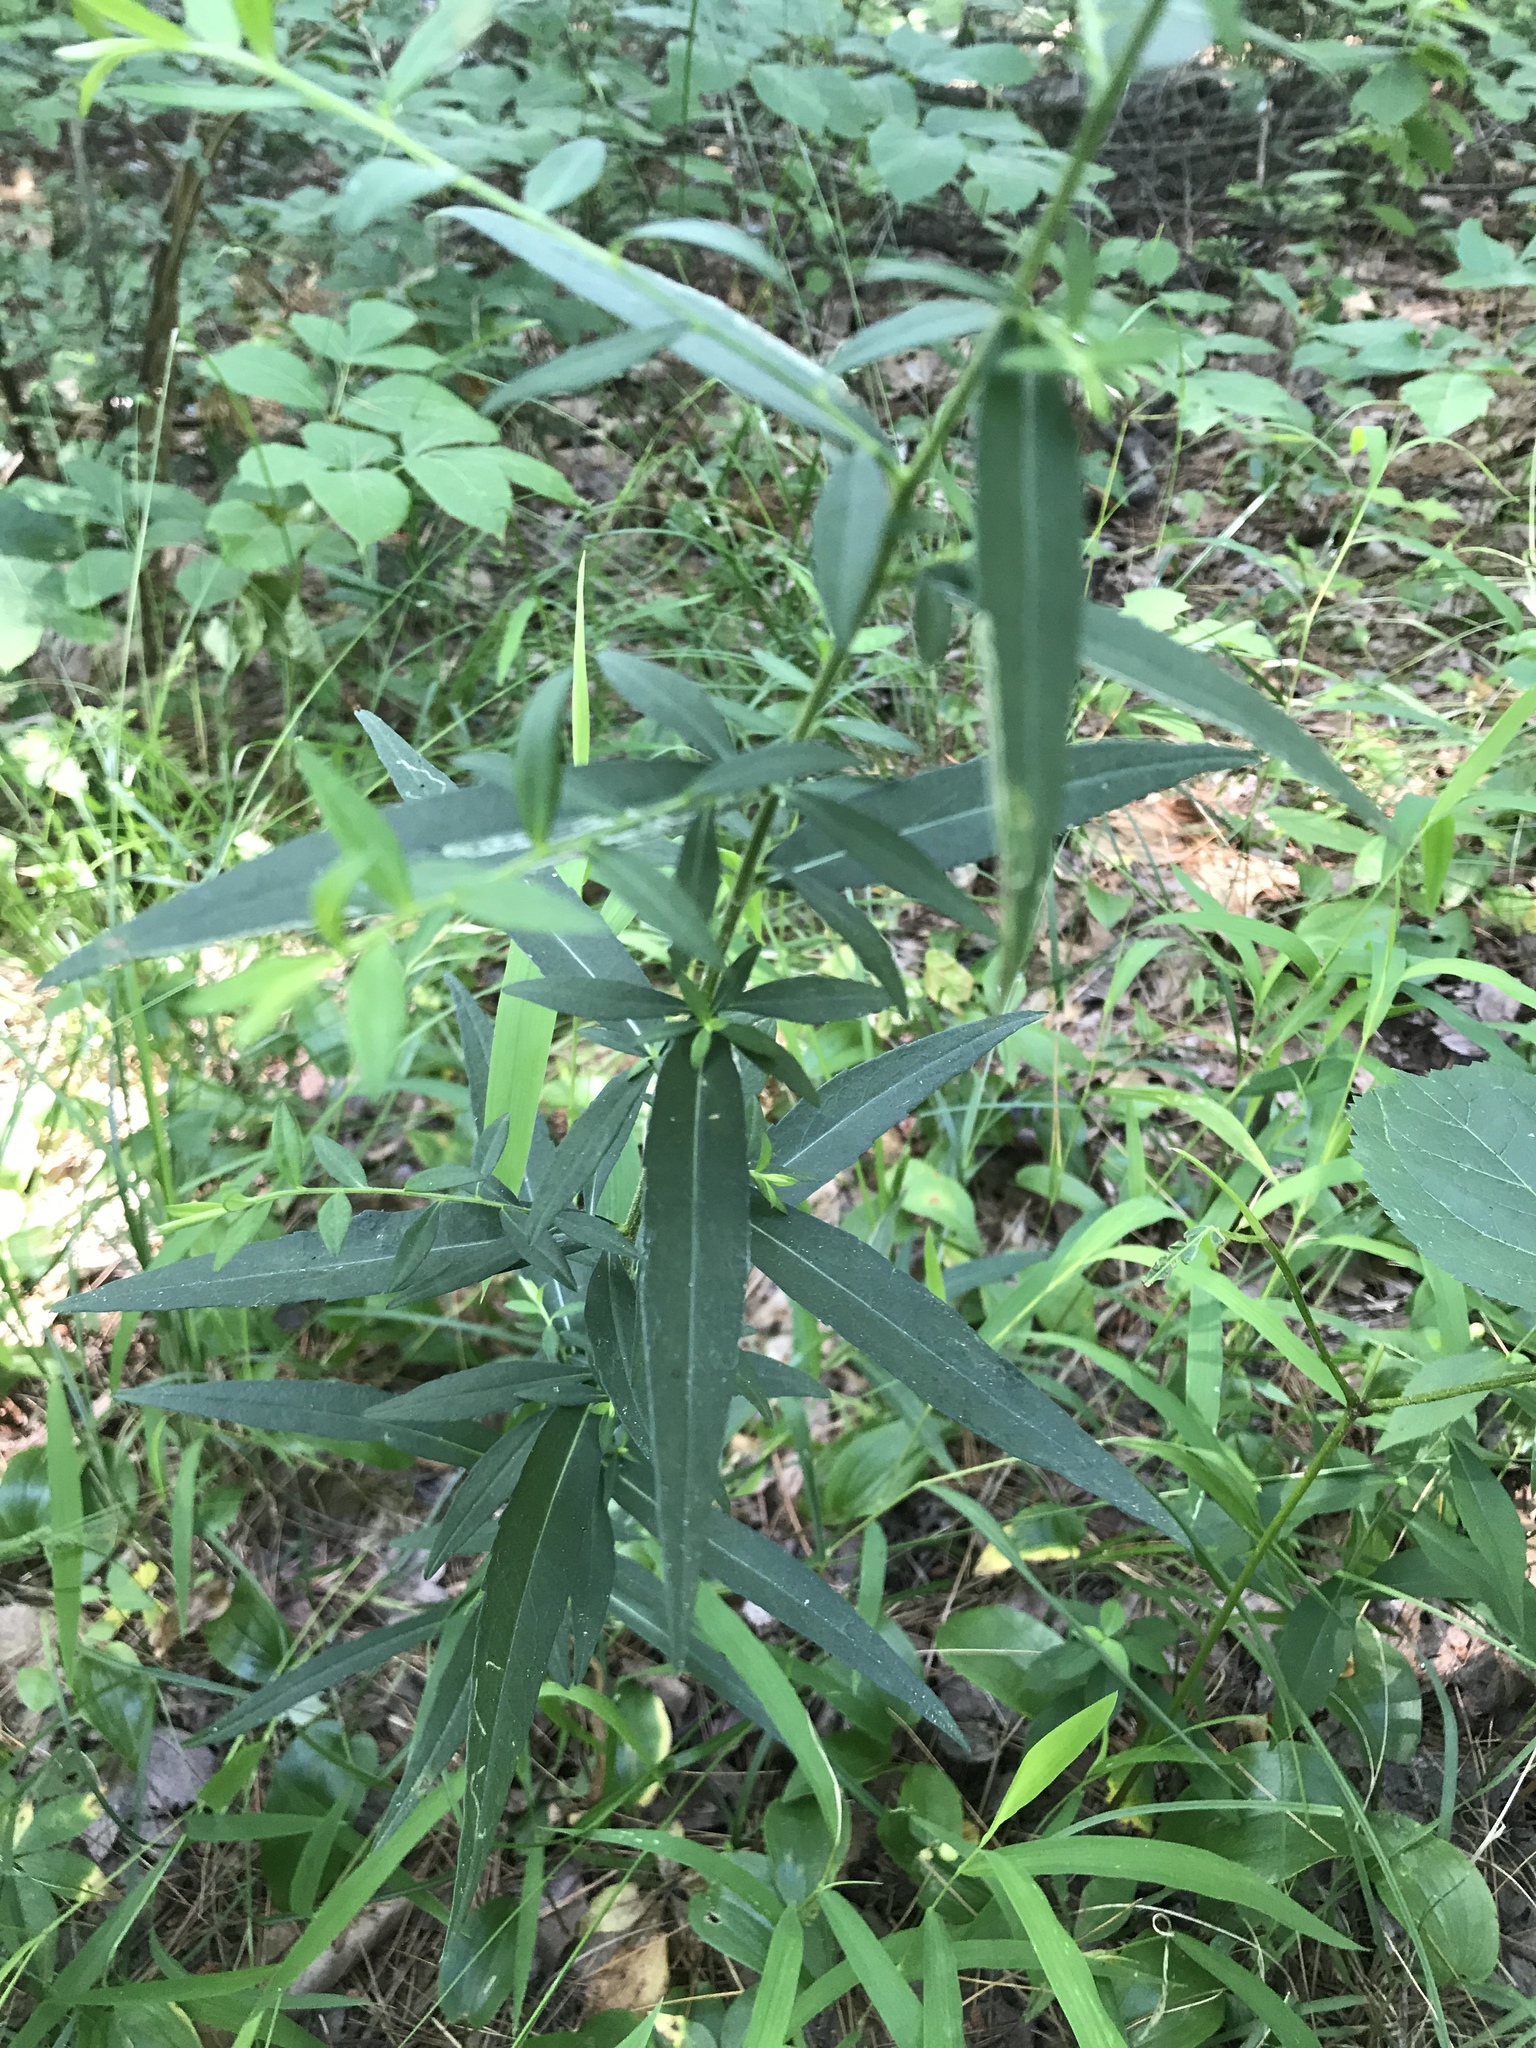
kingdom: Plantae
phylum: Tracheophyta
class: Magnoliopsida
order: Asterales
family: Asteraceae
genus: Solidago
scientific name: Solidago caesia
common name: Woodland goldenrod
